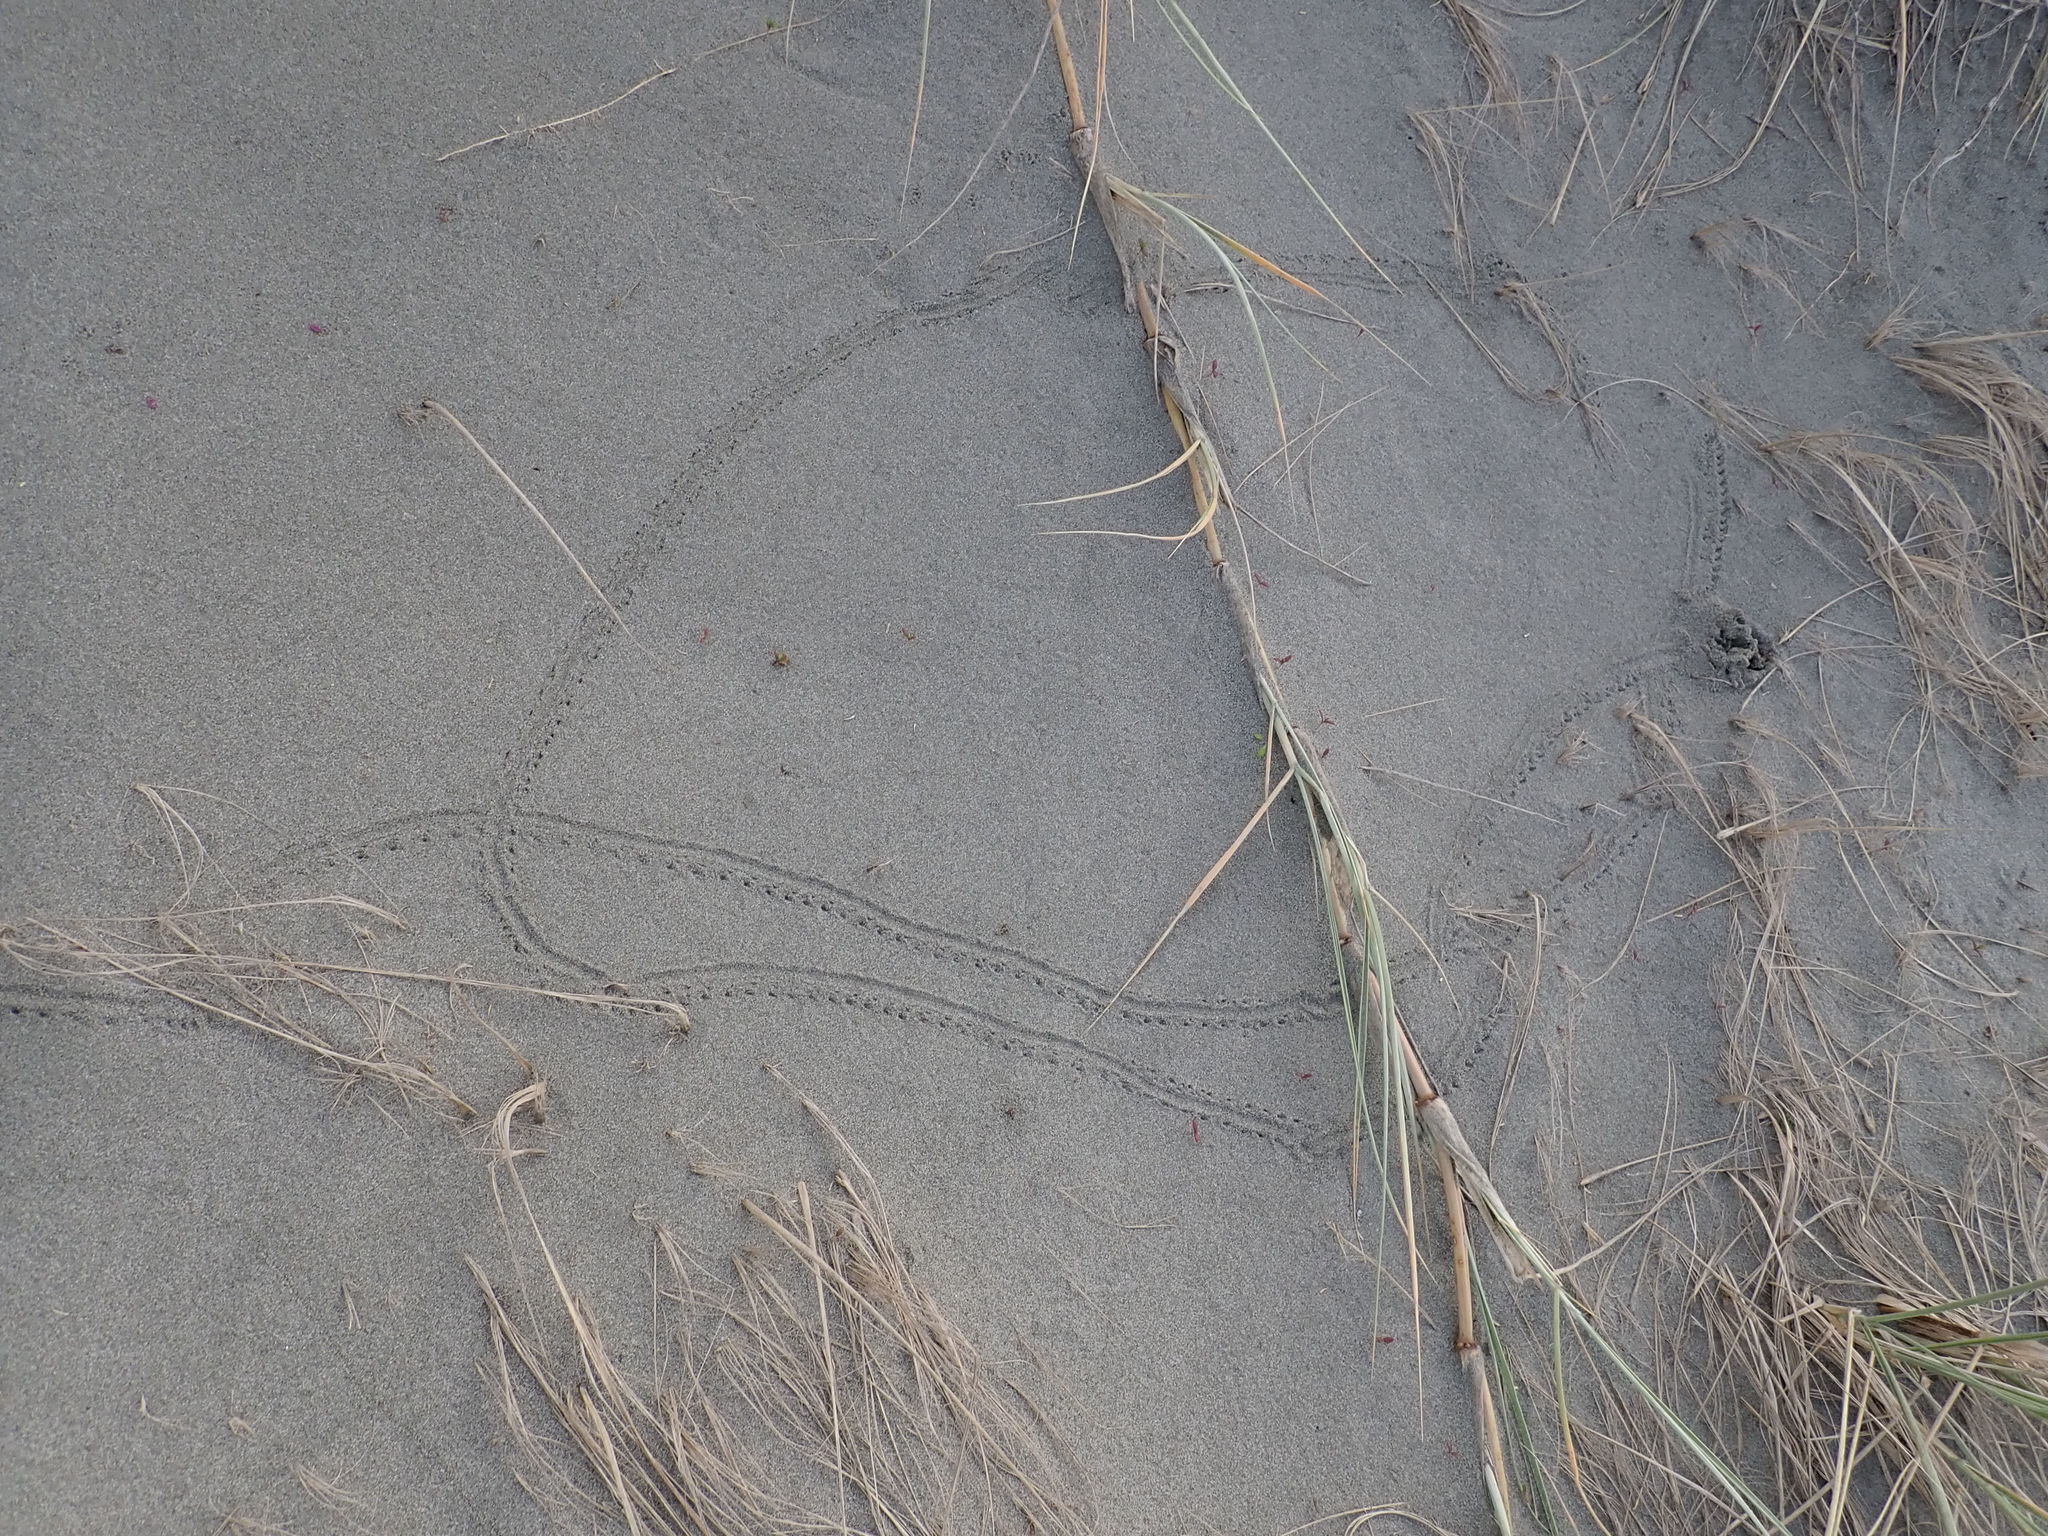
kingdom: Animalia
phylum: Arthropoda
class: Insecta
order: Coleoptera
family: Scarabaeidae
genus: Pericoptus
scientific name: Pericoptus truncatus
